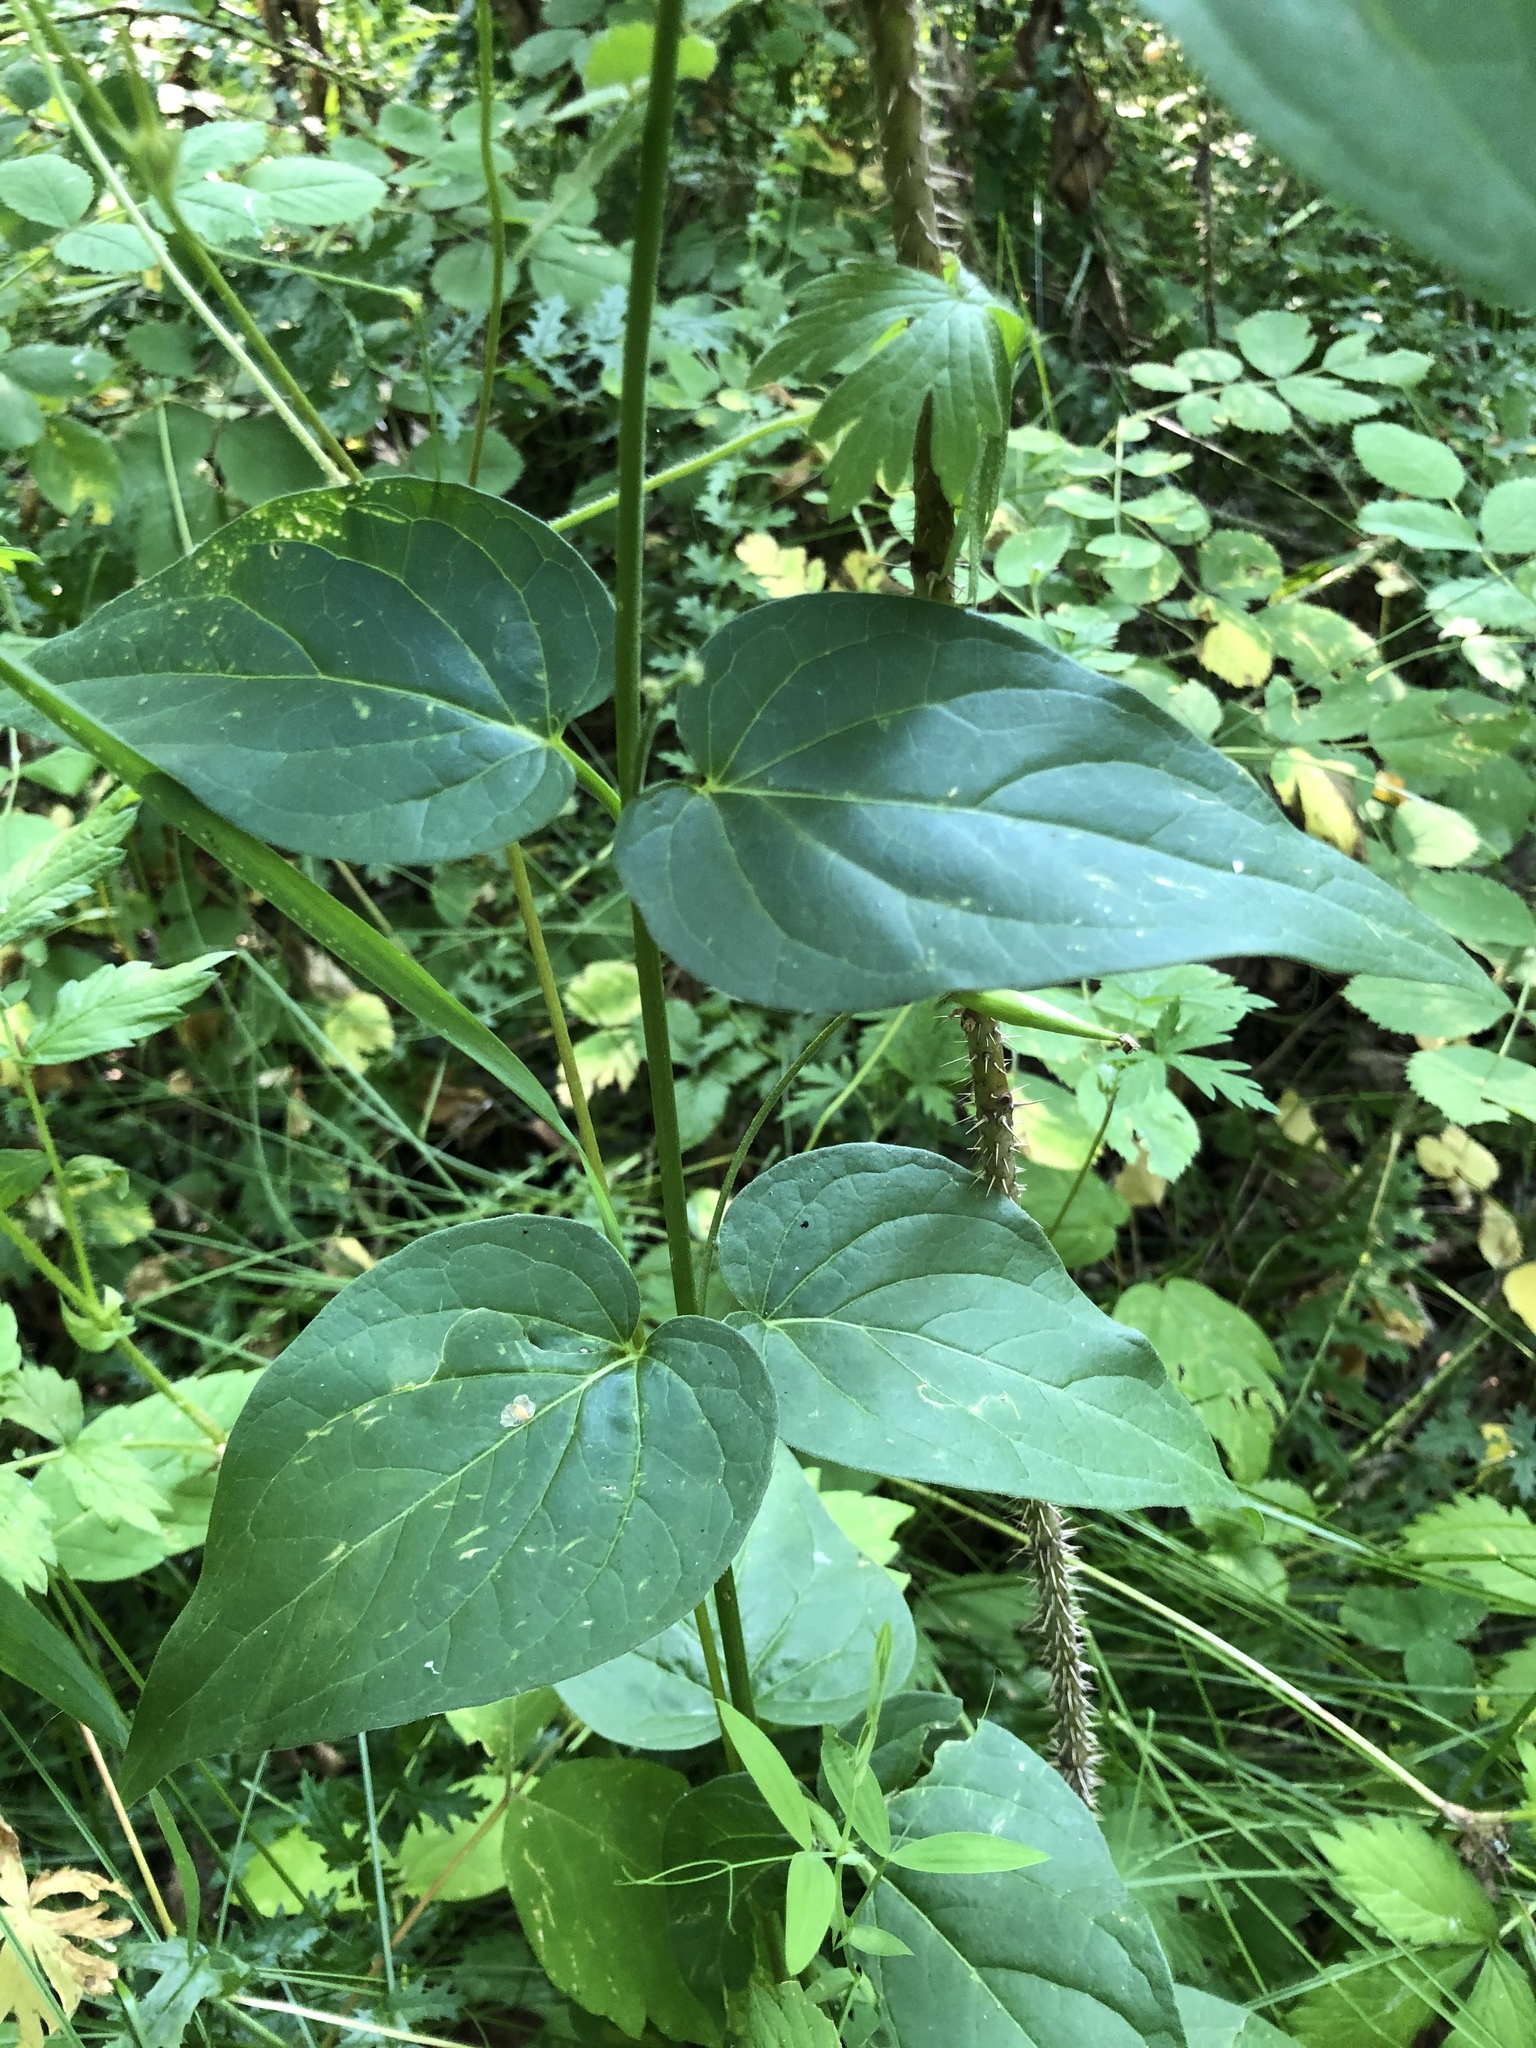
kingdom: Plantae
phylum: Tracheophyta
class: Magnoliopsida
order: Gentianales
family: Apocynaceae
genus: Vincetoxicum
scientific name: Vincetoxicum hirundinaria
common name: White swallowwort
